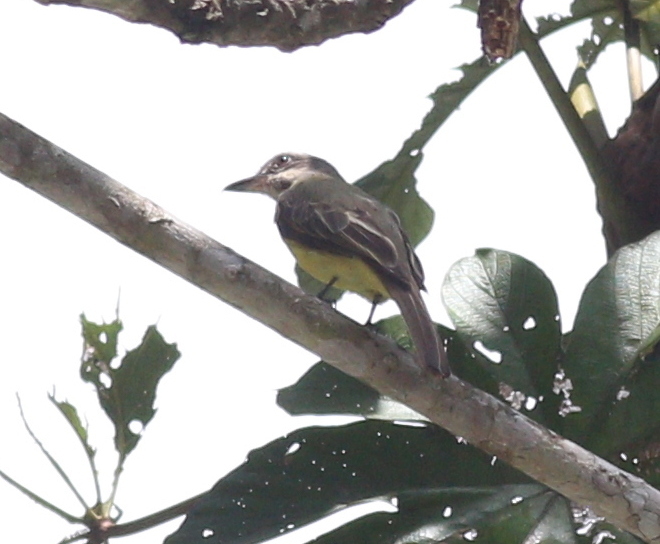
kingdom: Animalia
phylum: Chordata
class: Aves
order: Passeriformes
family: Tyrannidae
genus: Myiodynastes
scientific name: Myiodynastes chrysocephalus
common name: Golden-crowned flycatcher
